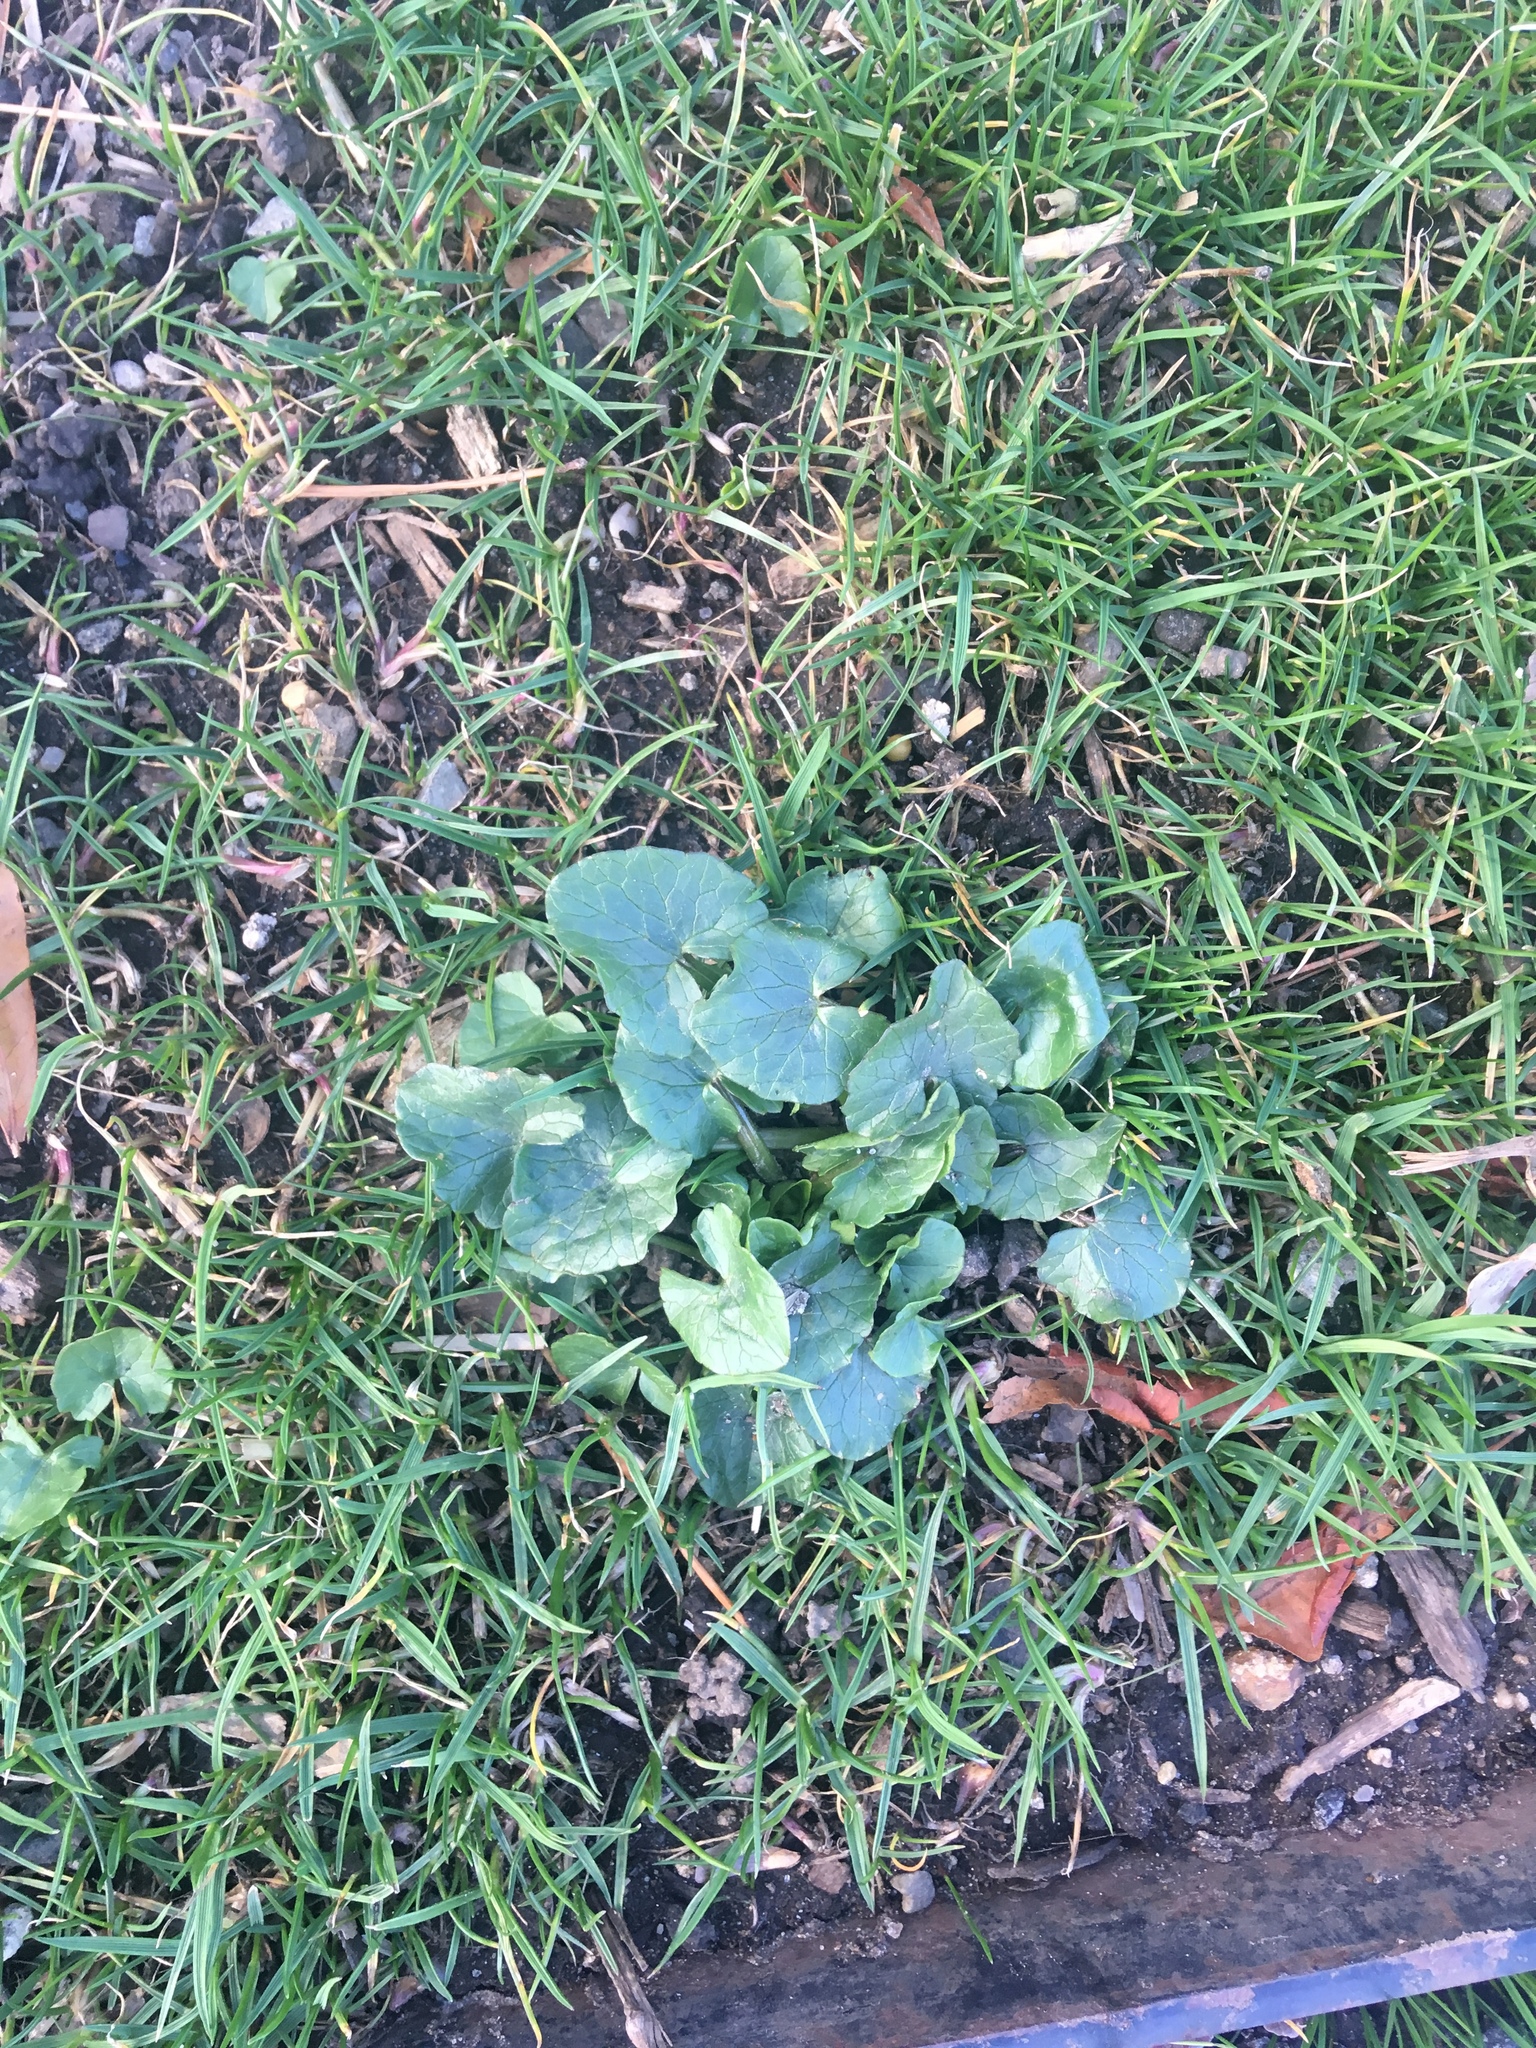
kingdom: Plantae
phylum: Tracheophyta
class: Magnoliopsida
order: Ranunculales
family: Ranunculaceae
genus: Ficaria
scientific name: Ficaria verna
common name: Lesser celandine
